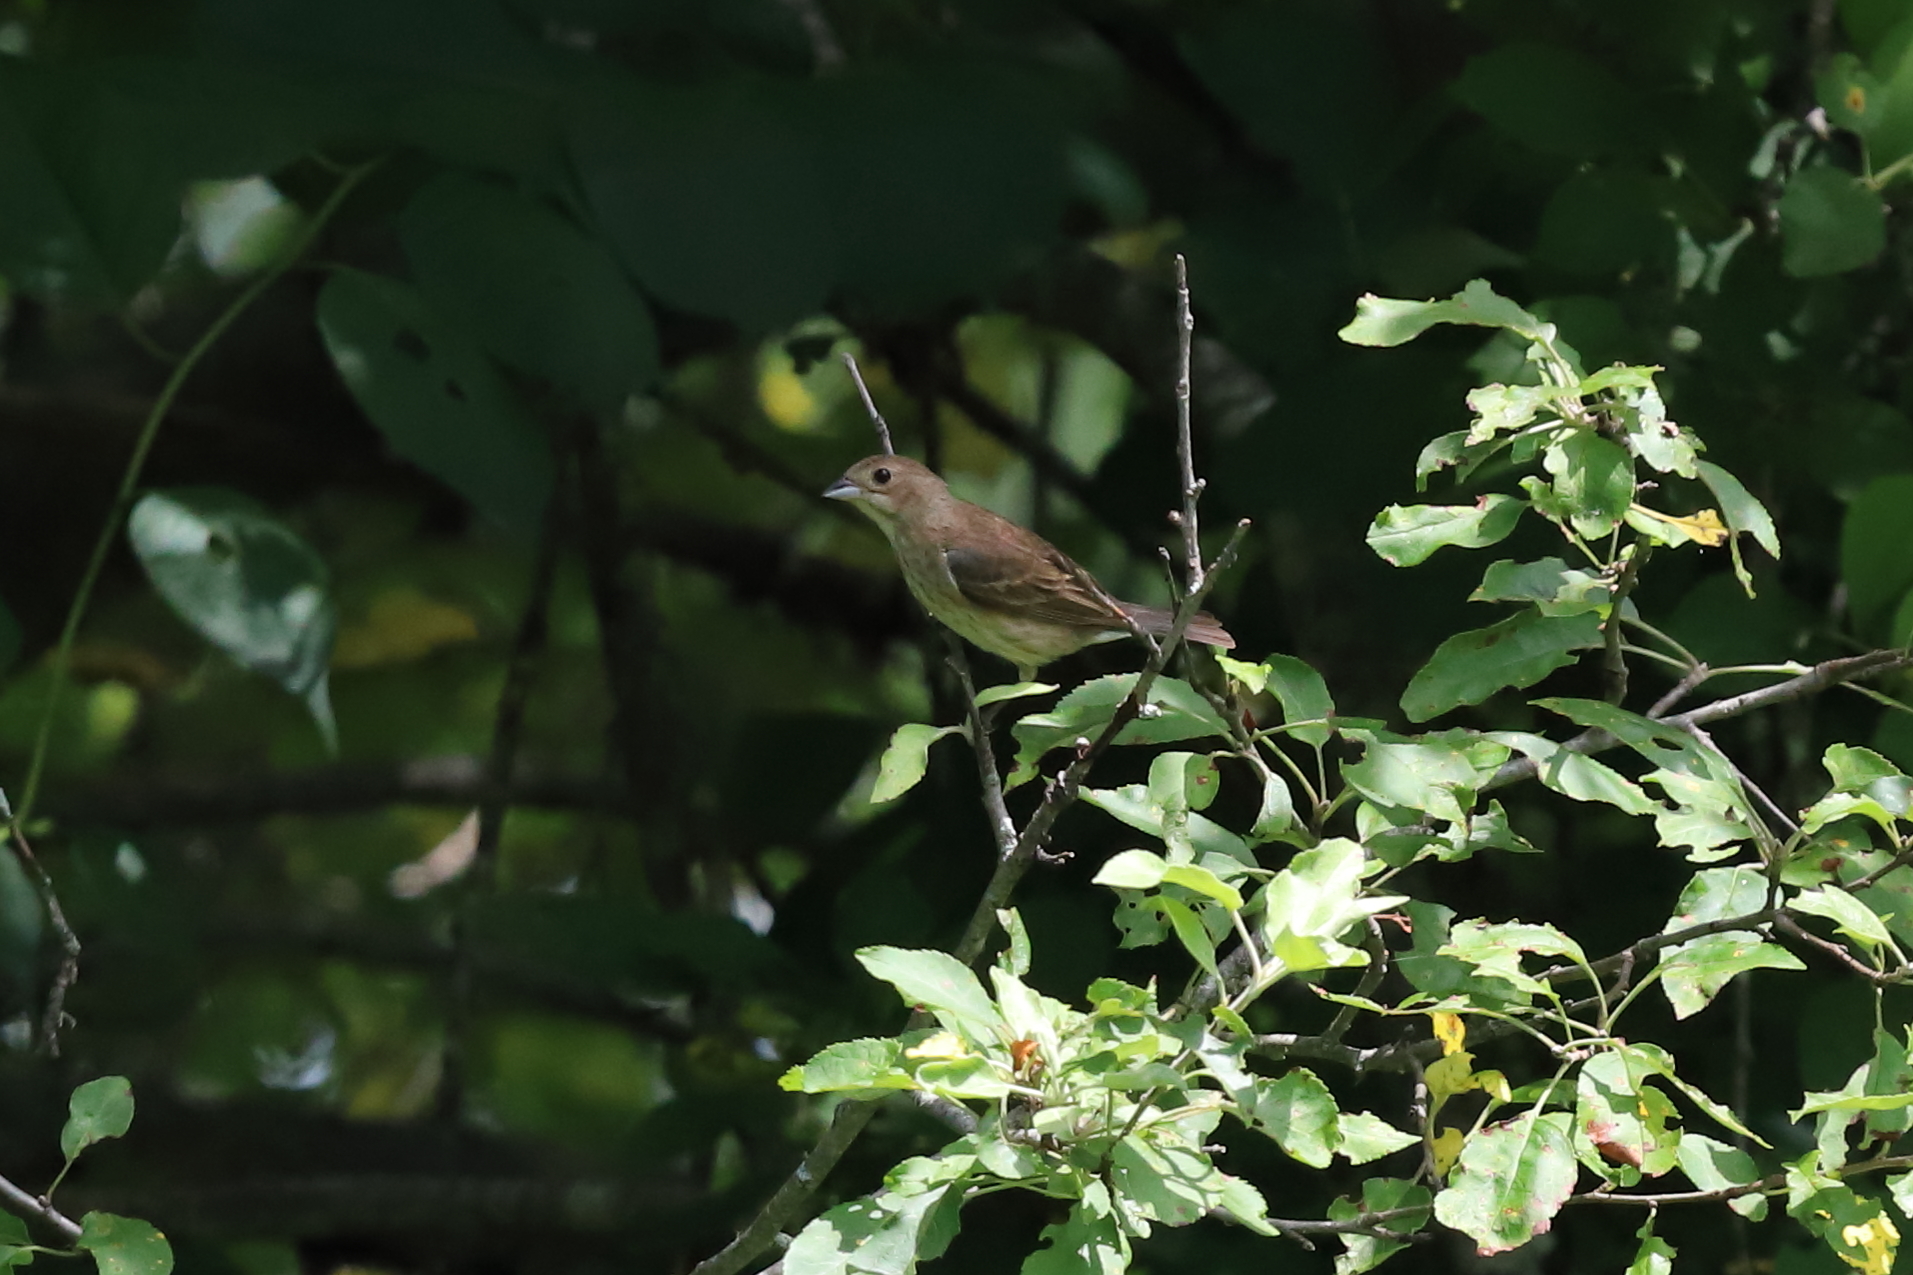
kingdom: Animalia
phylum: Chordata
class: Aves
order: Passeriformes
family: Cardinalidae
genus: Passerina
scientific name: Passerina cyanea
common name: Indigo bunting
